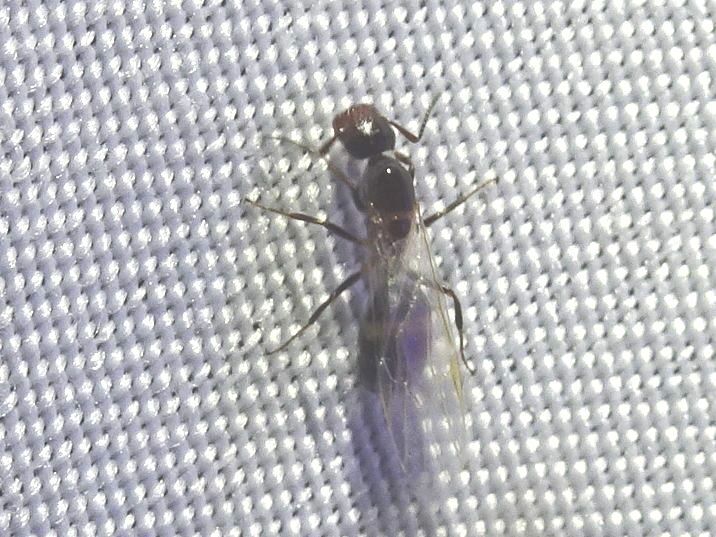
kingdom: Animalia
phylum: Arthropoda
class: Insecta
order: Hymenoptera
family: Formicidae
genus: Camponotus
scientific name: Camponotus truncatus
